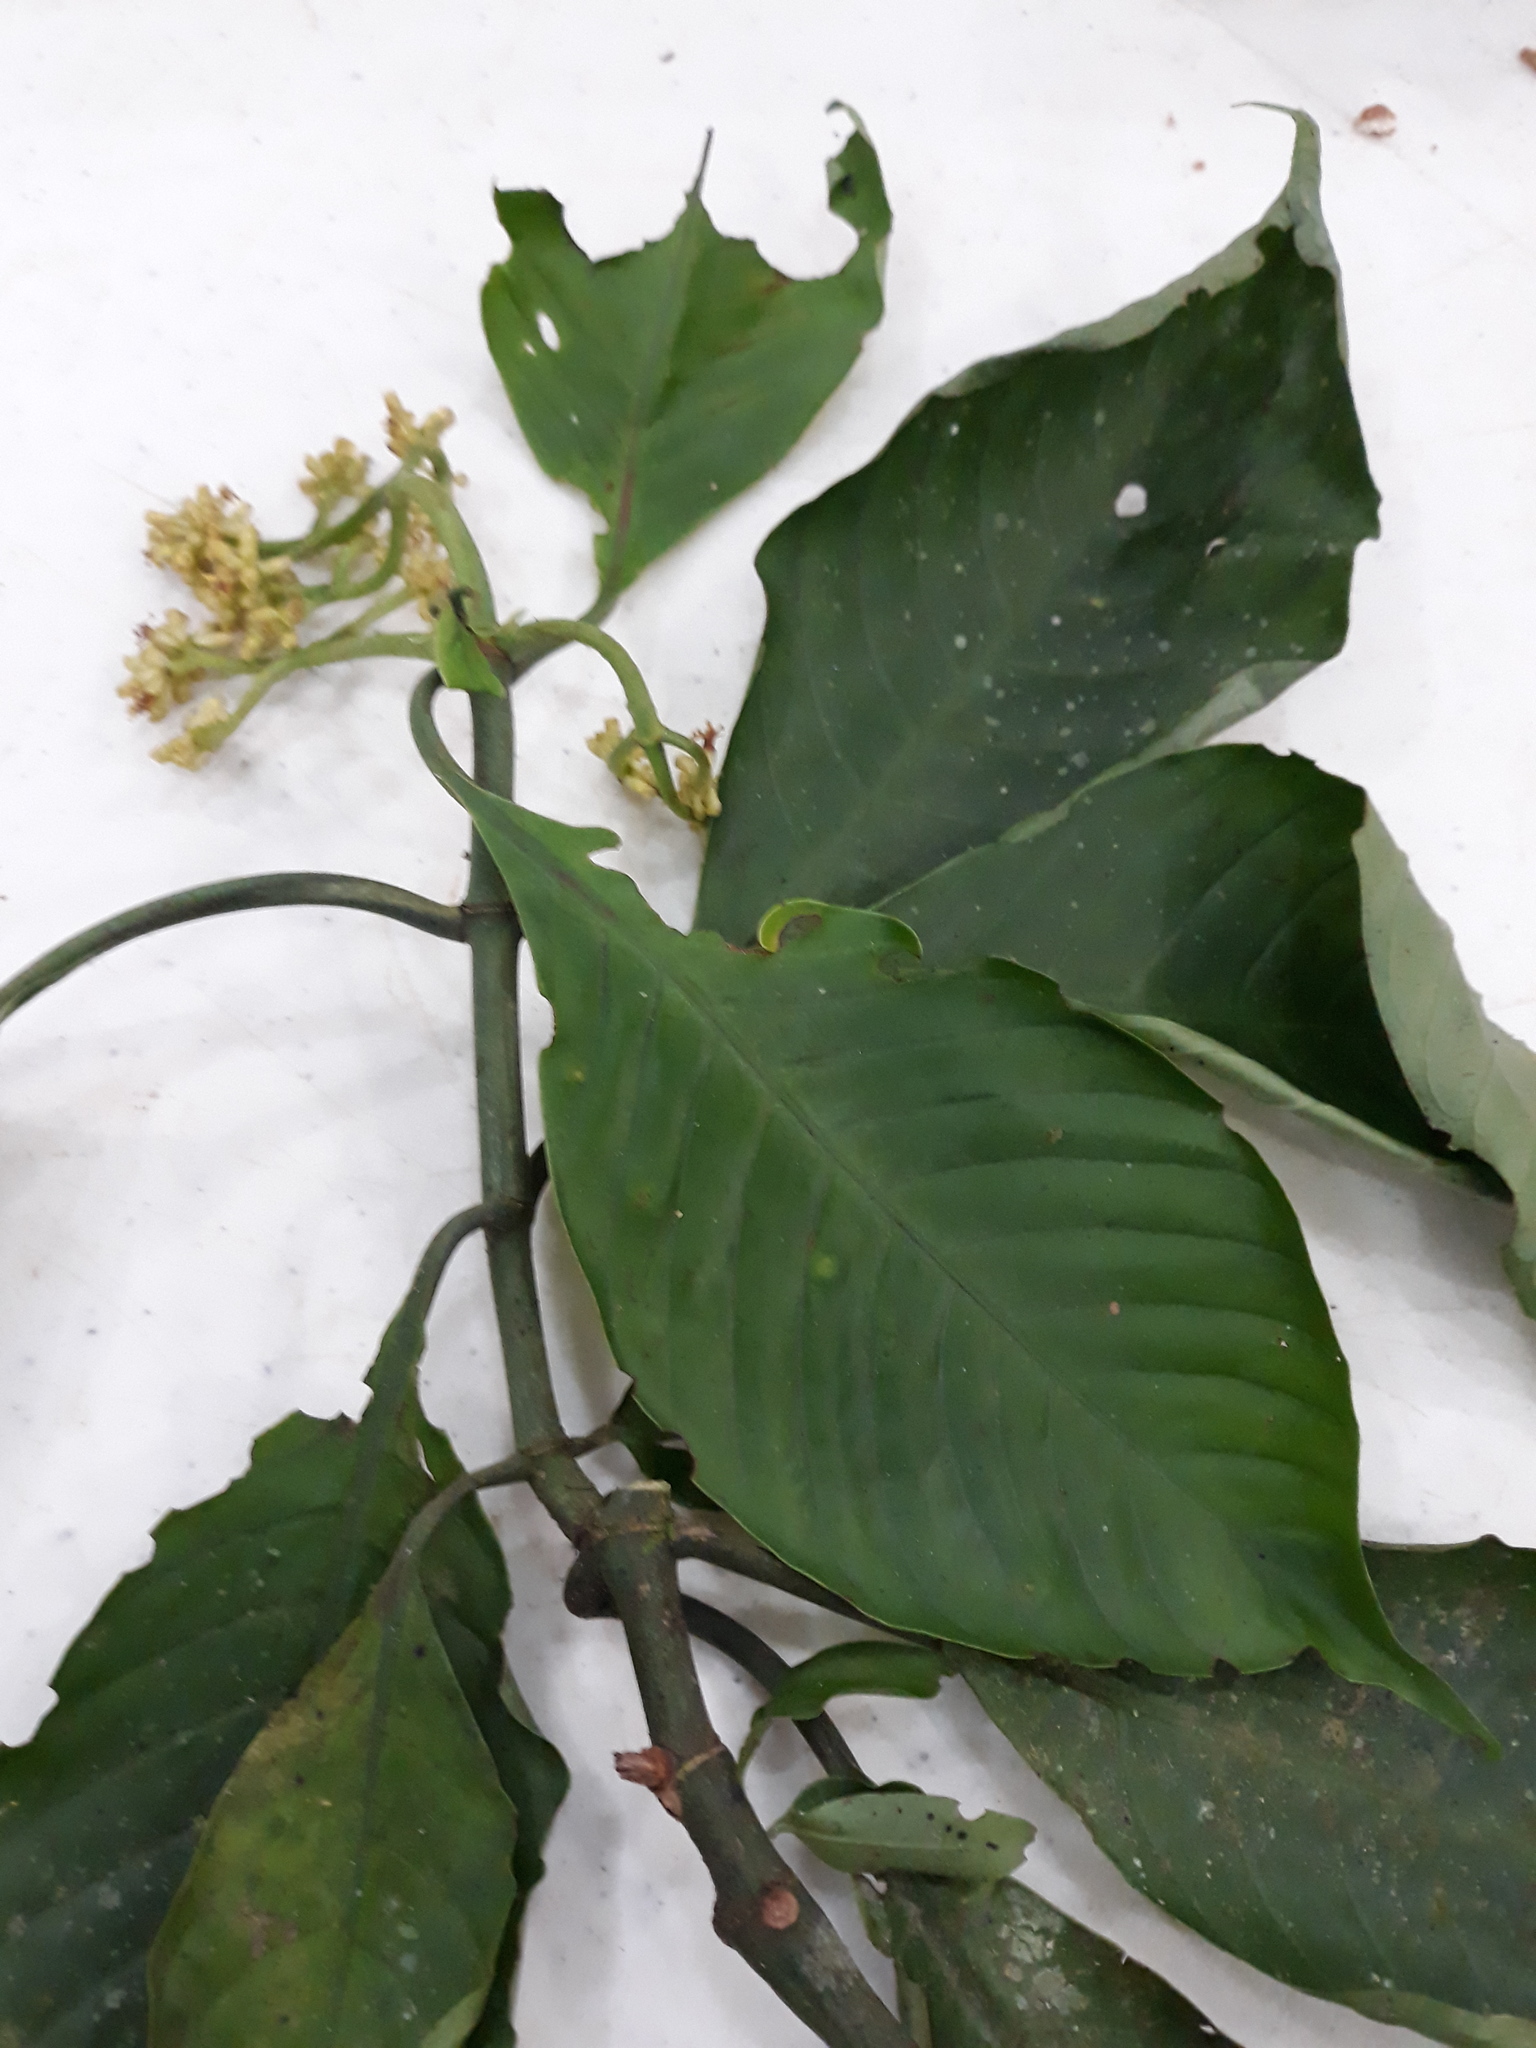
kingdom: Plantae
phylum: Tracheophyta
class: Magnoliopsida
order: Gentianales
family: Rubiaceae
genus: Notopleura
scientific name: Notopleura macrophylla
